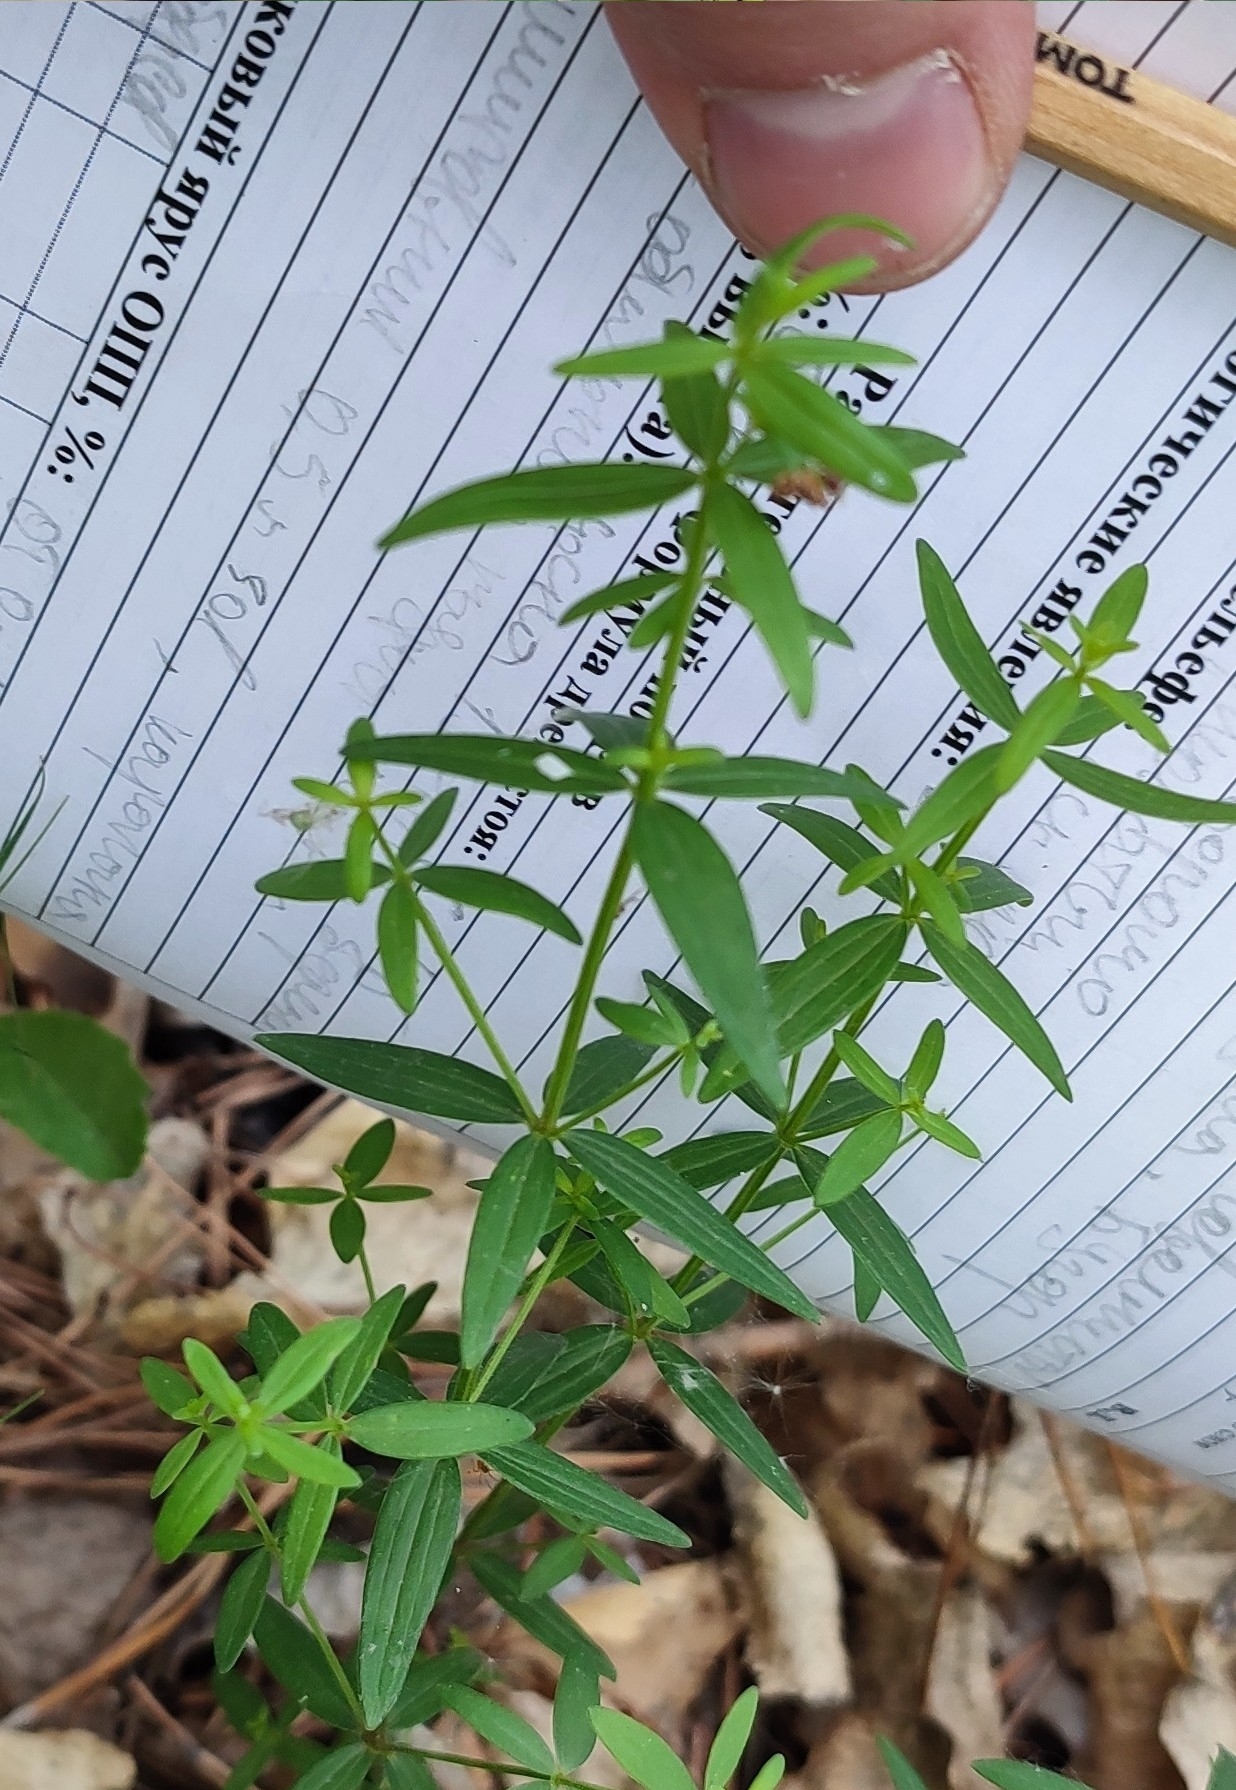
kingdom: Plantae
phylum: Tracheophyta
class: Magnoliopsida
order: Gentianales
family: Rubiaceae
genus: Galium
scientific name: Galium boreale
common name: Northern bedstraw
